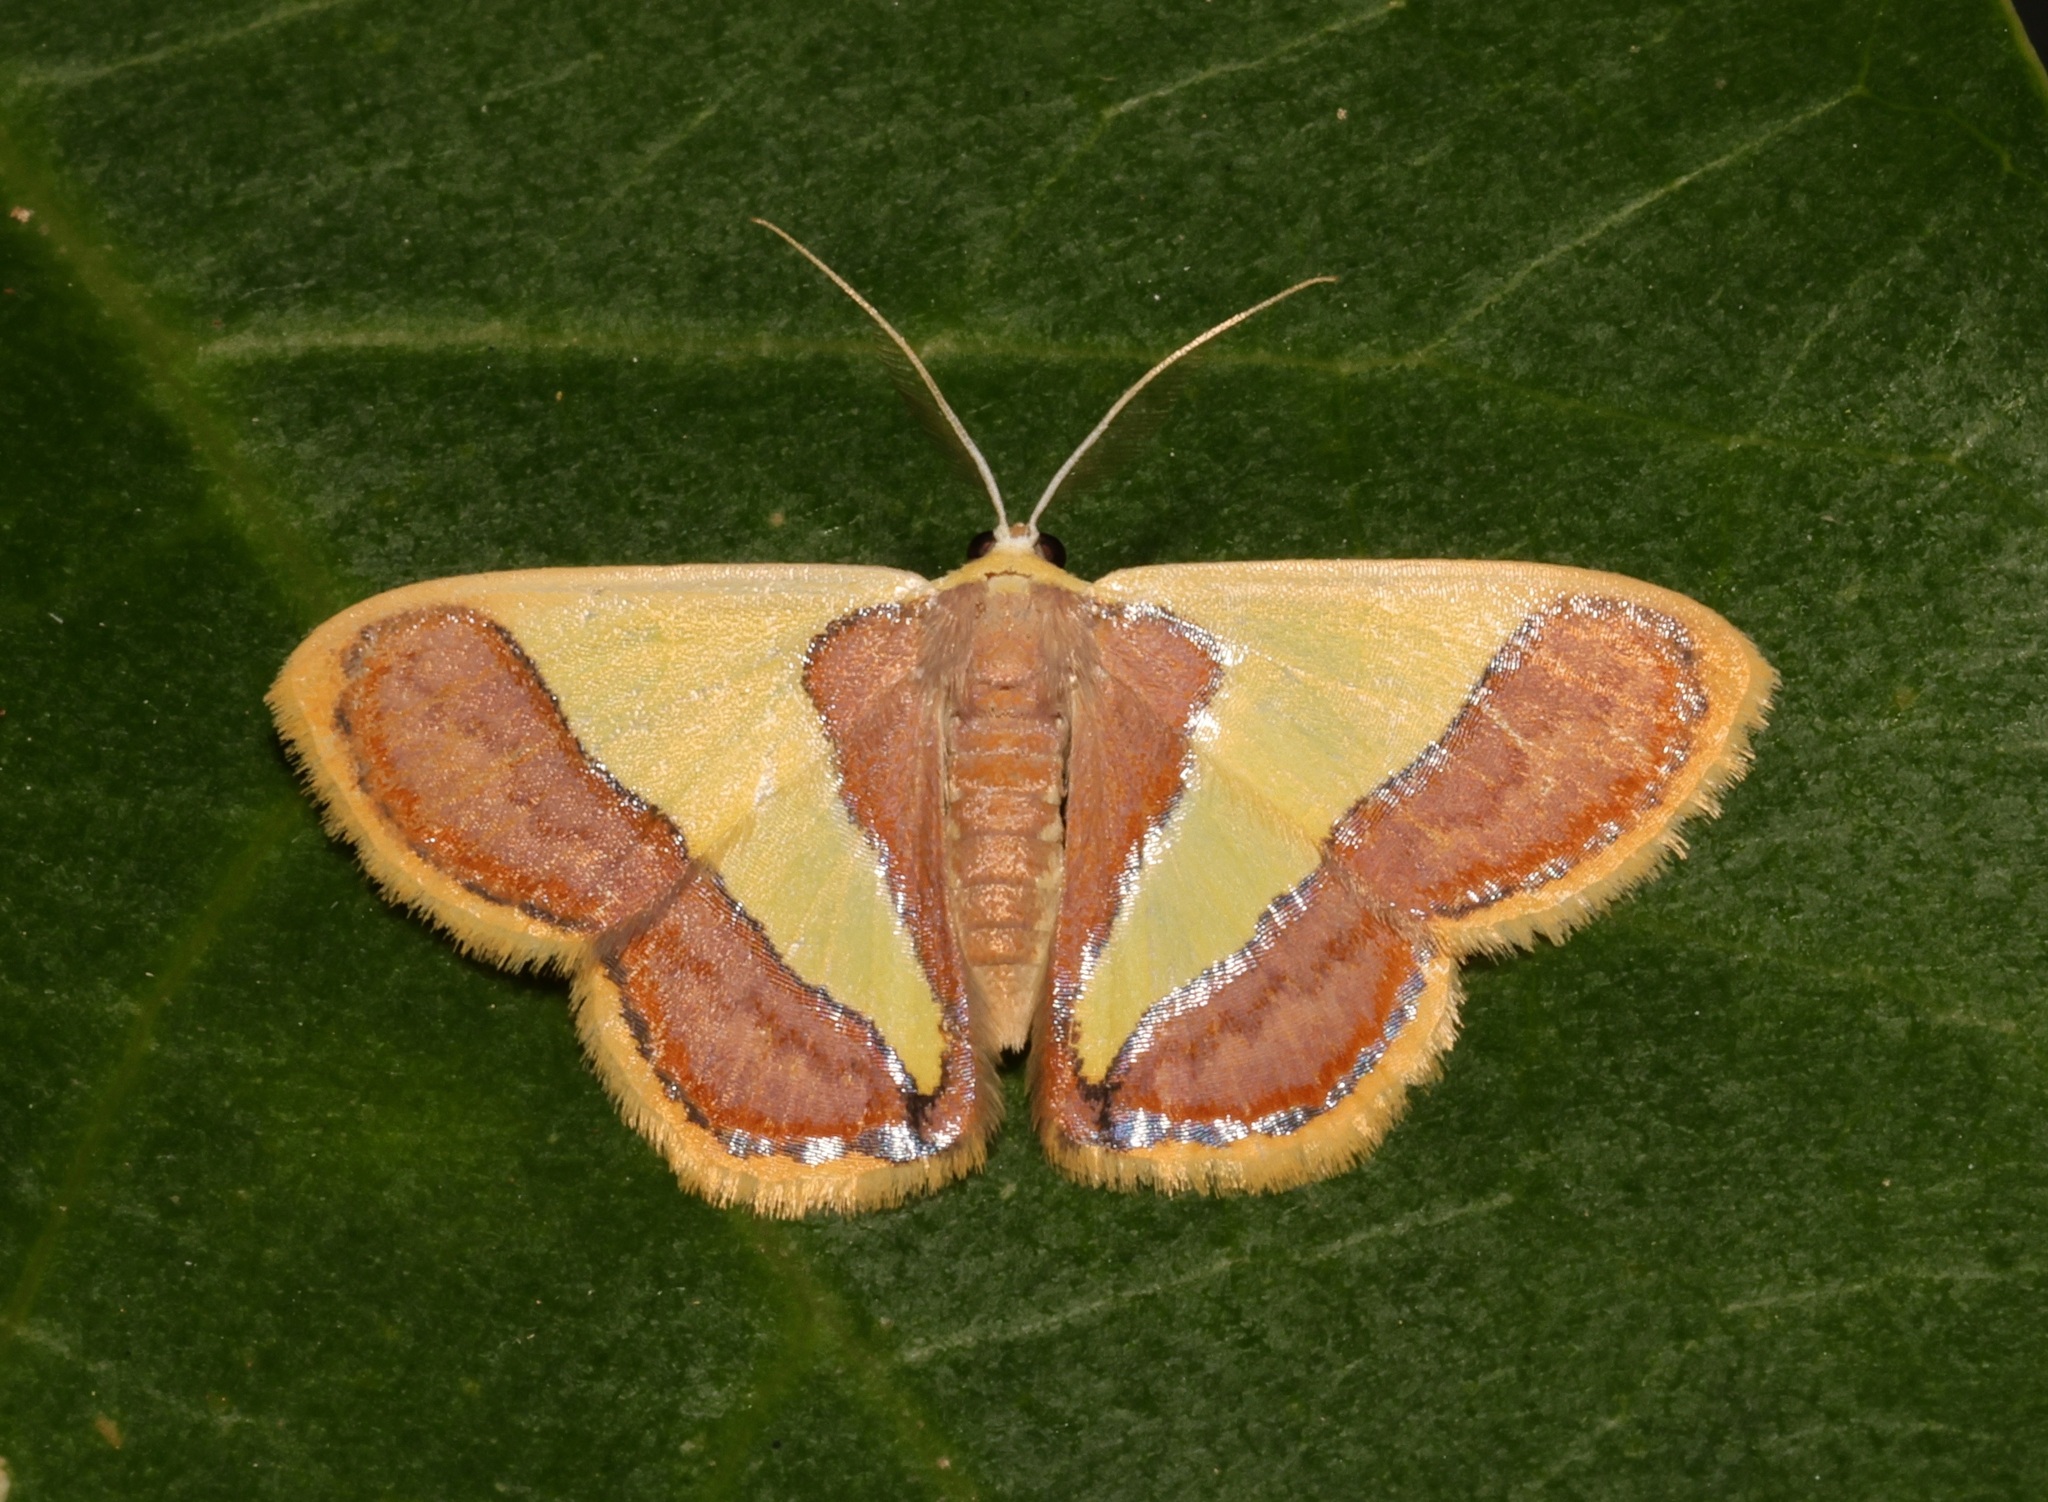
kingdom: Animalia
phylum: Arthropoda
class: Insecta
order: Lepidoptera
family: Geometridae
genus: Plutodes
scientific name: Plutodes exquisita
